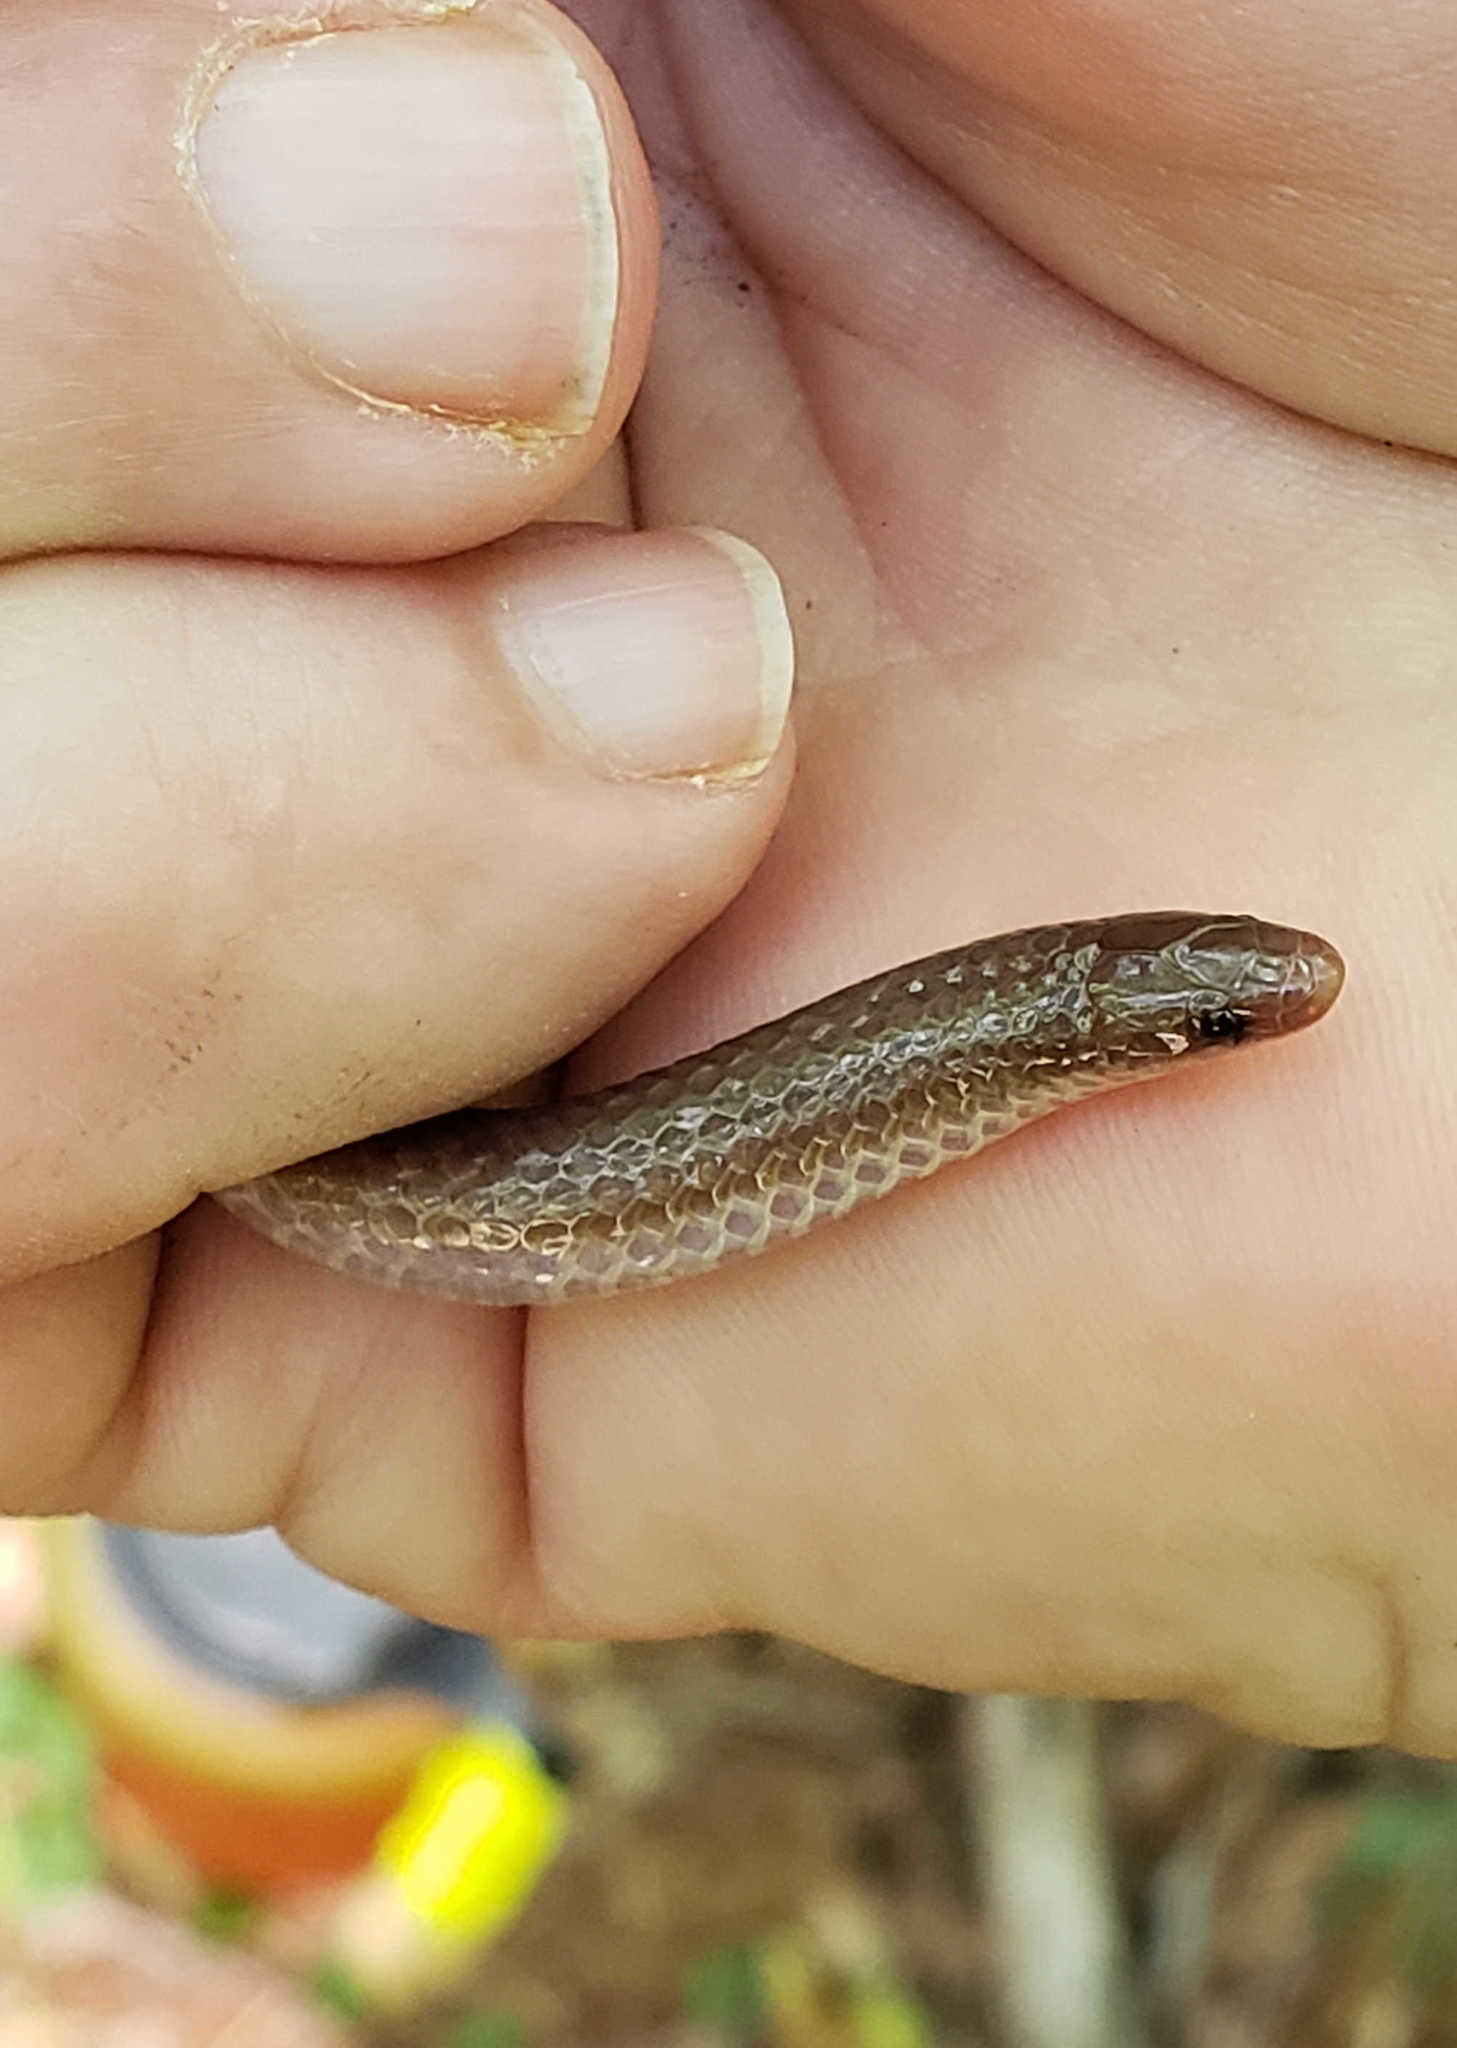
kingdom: Animalia
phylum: Chordata
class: Squamata
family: Colubridae
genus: Carphophis
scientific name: Carphophis amoenus
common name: Eastern worm snake
